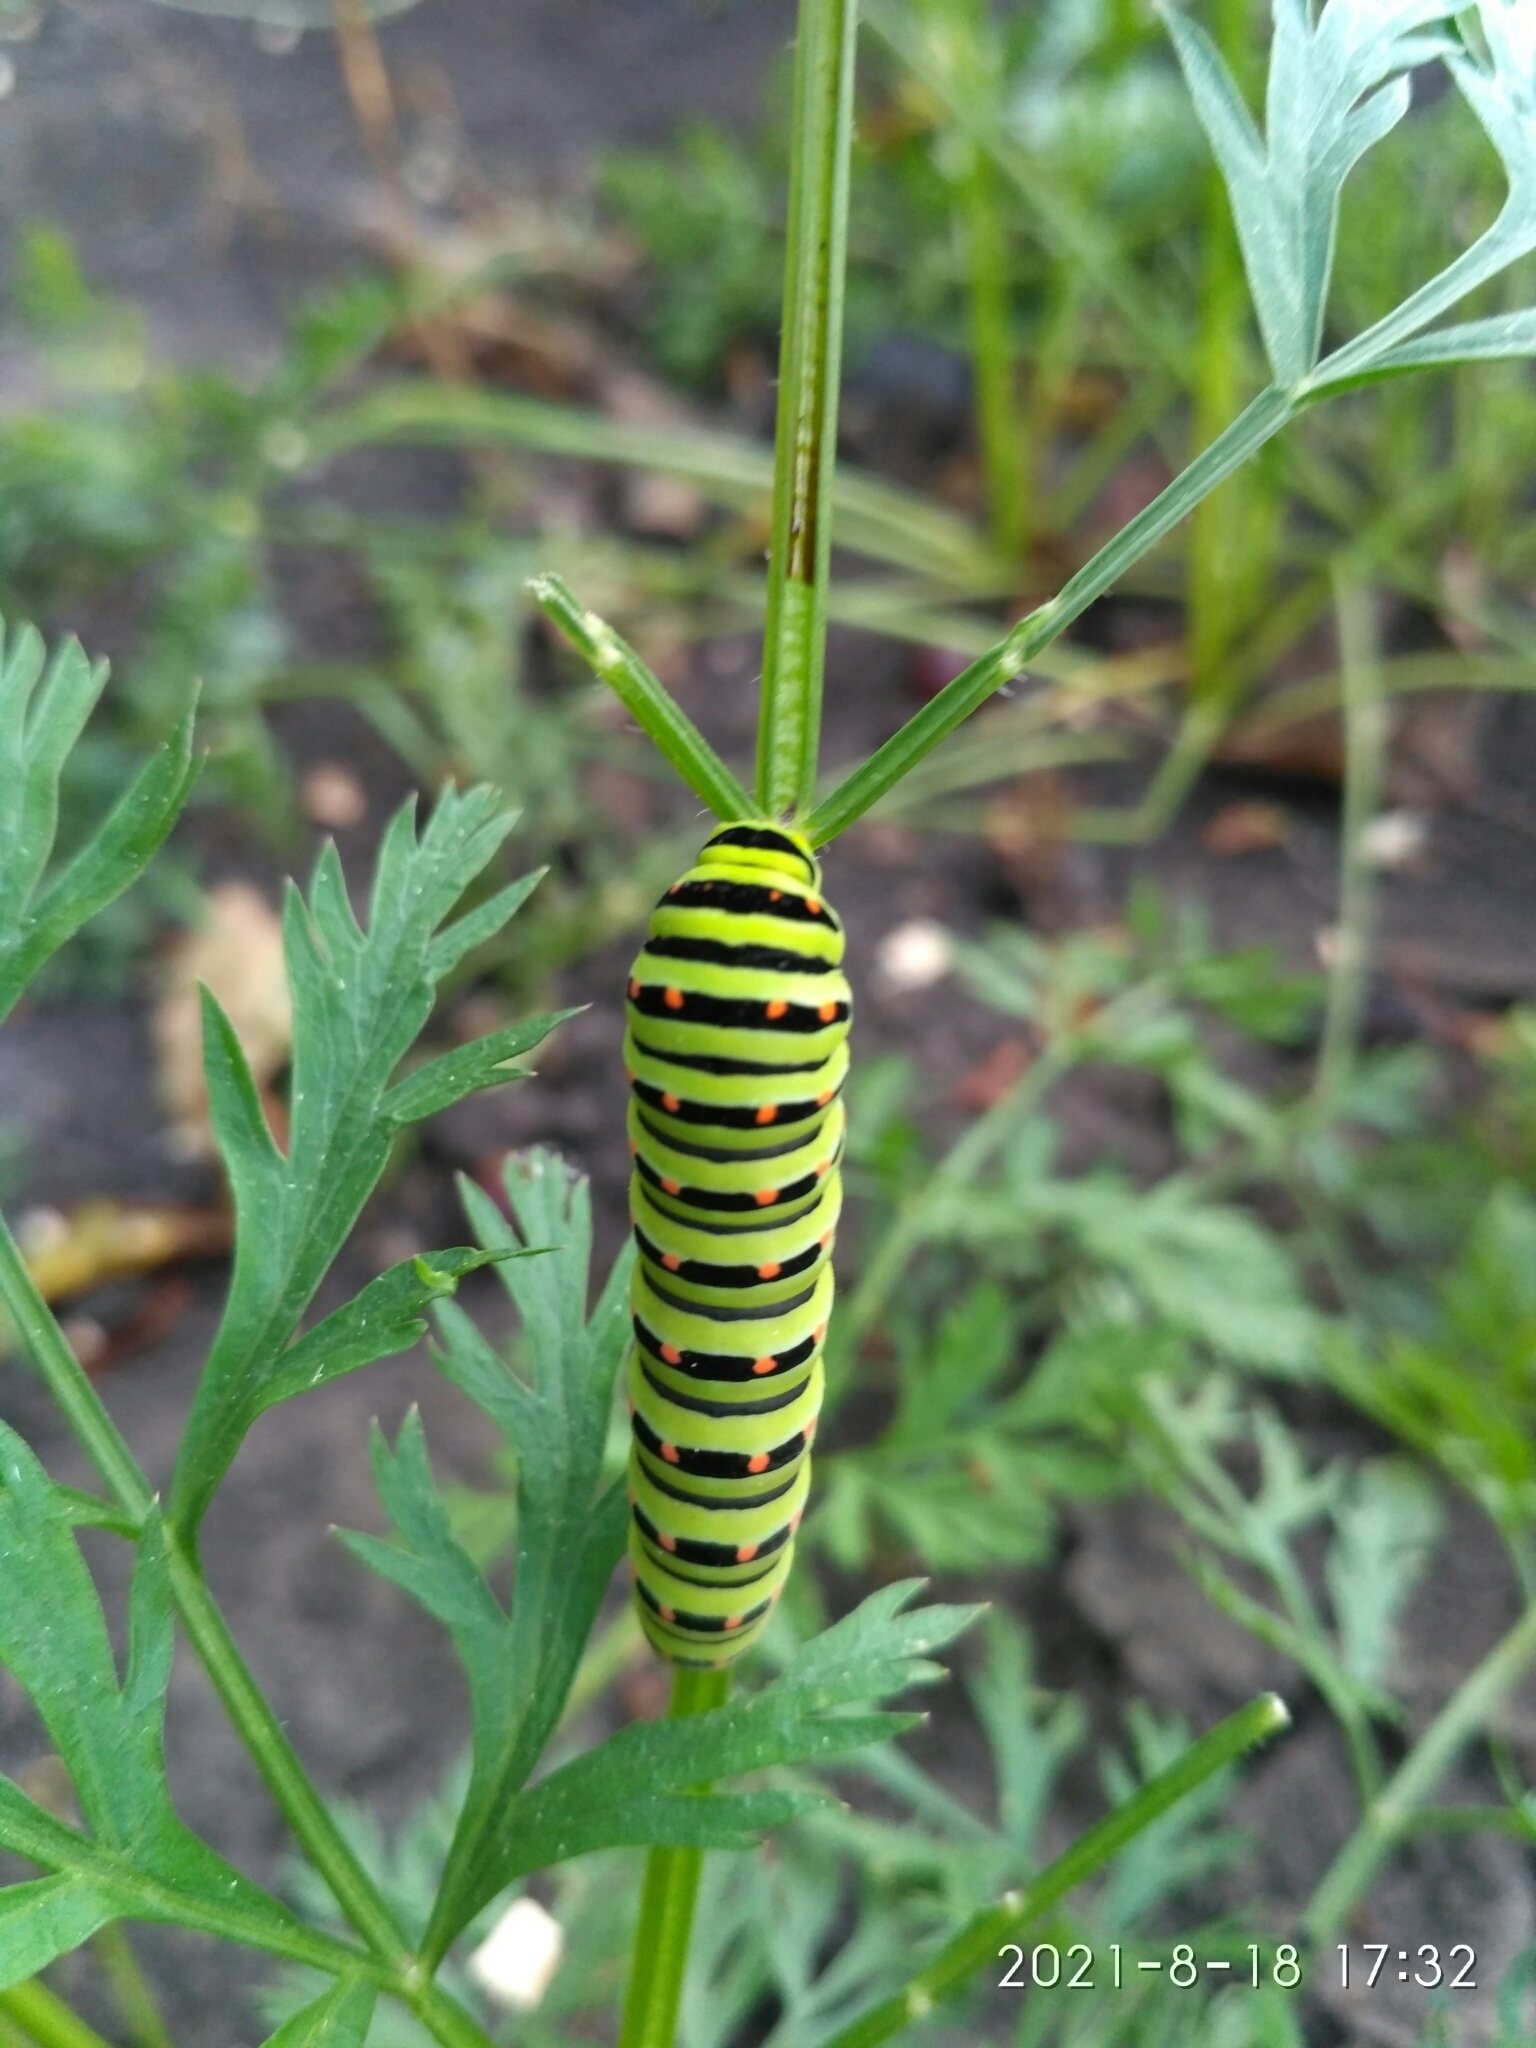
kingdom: Animalia
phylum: Arthropoda
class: Insecta
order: Lepidoptera
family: Papilionidae
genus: Papilio
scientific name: Papilio machaon
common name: Swallowtail
